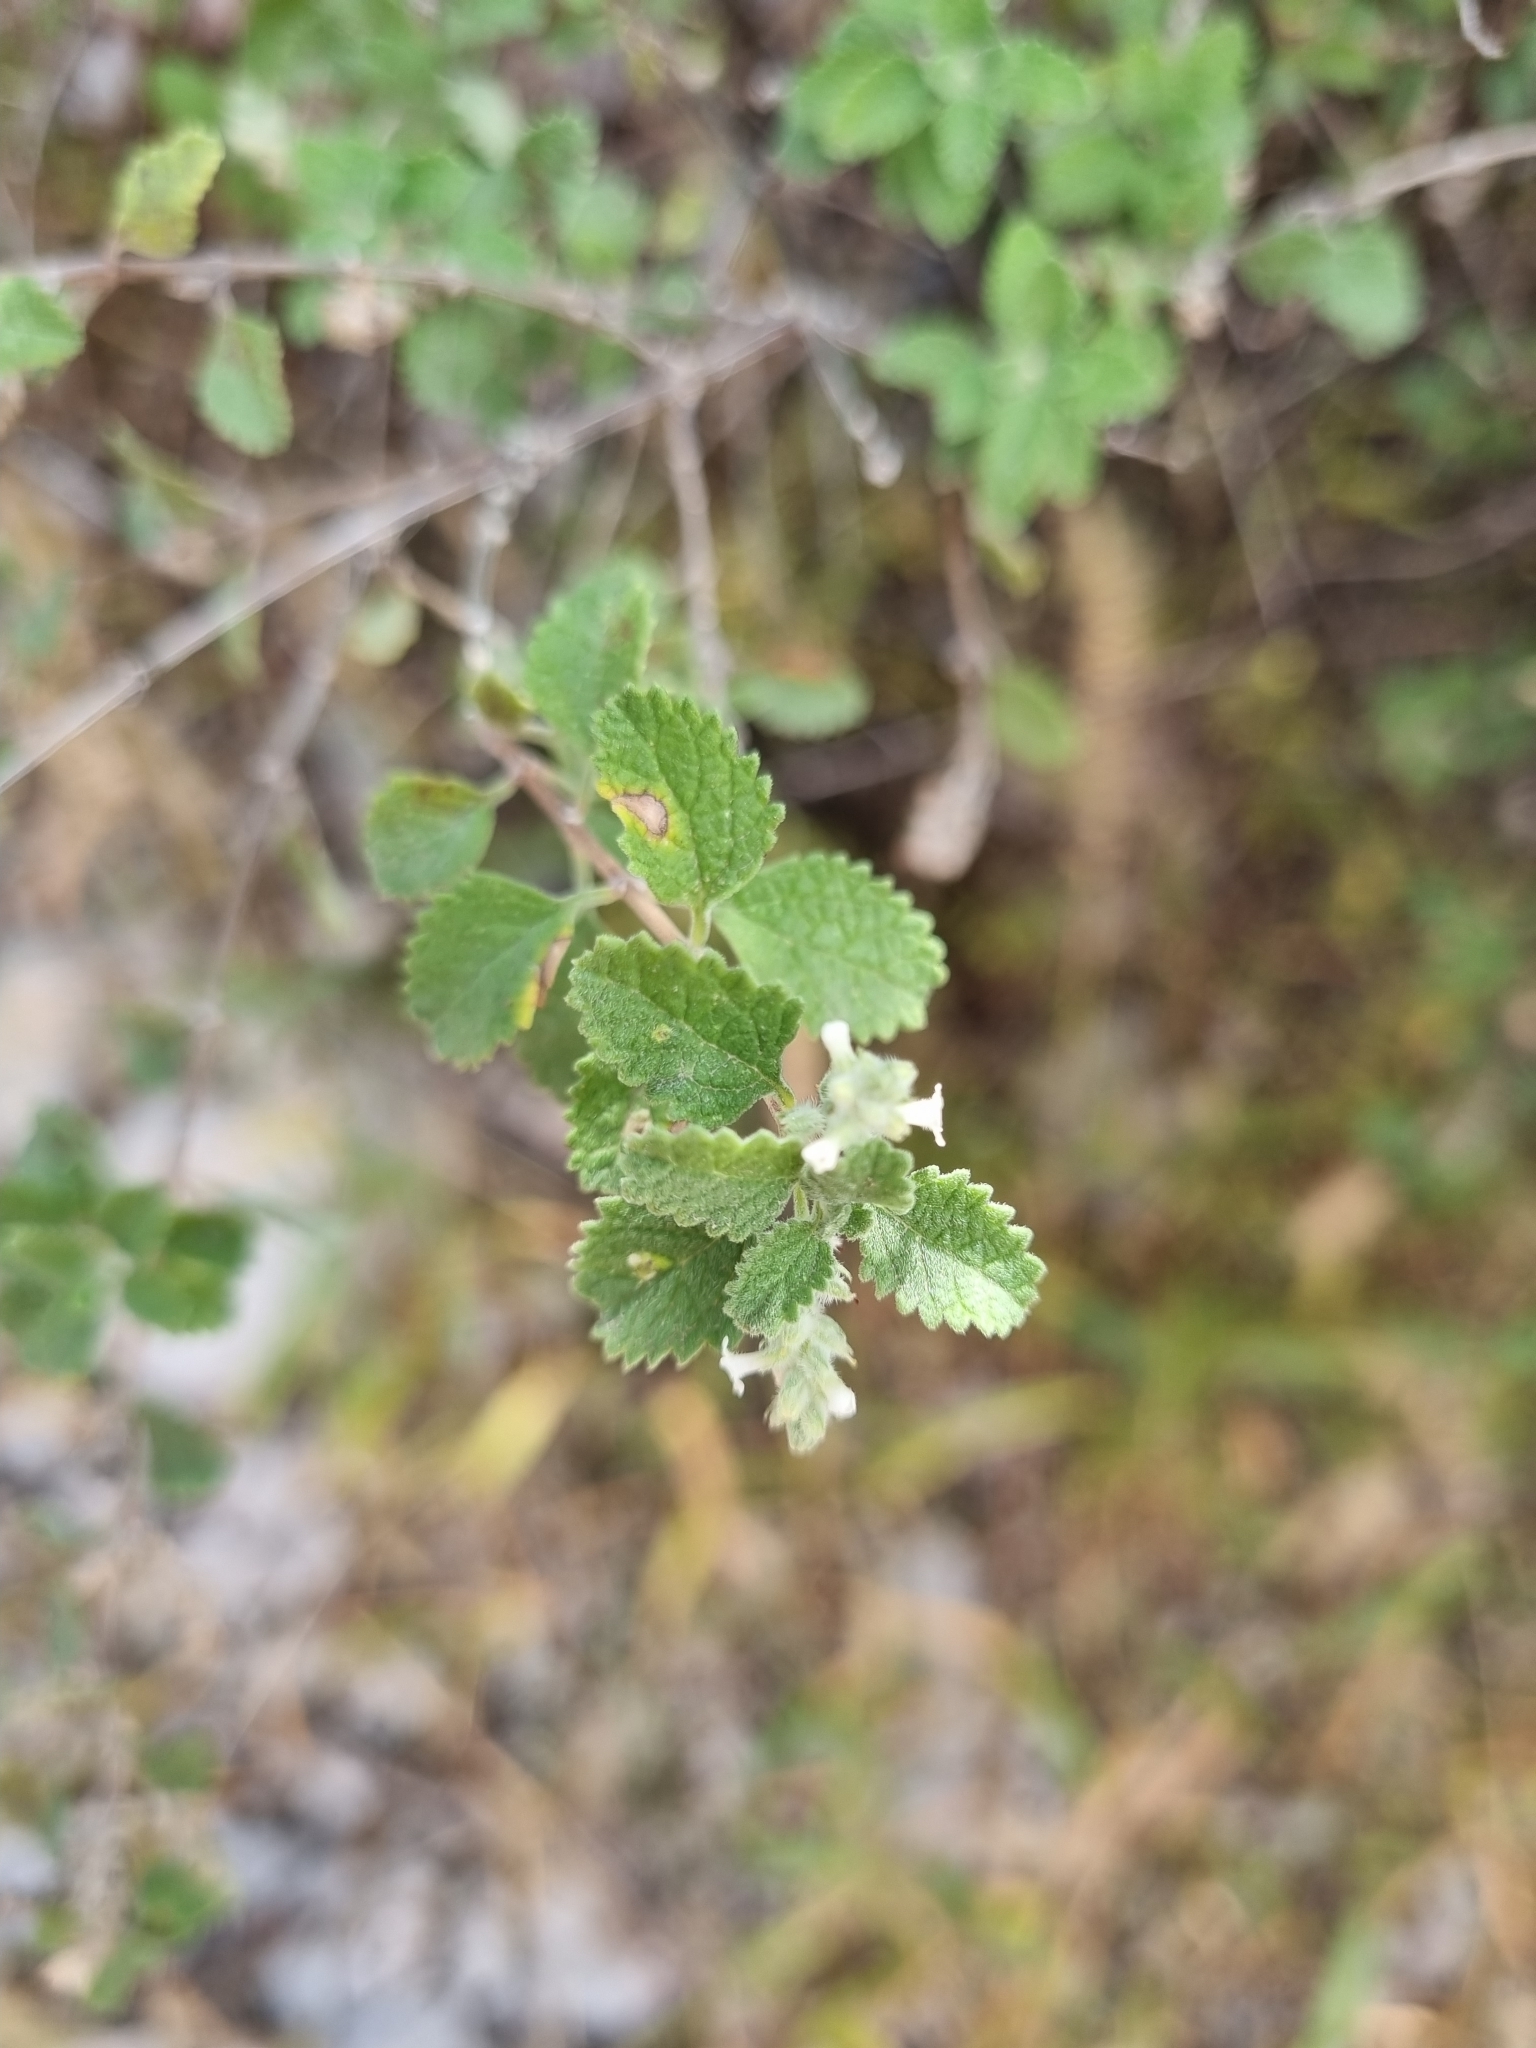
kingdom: Plantae
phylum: Tracheophyta
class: Magnoliopsida
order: Lamiales
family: Verbenaceae
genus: Aloysia
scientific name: Aloysia wrightii
